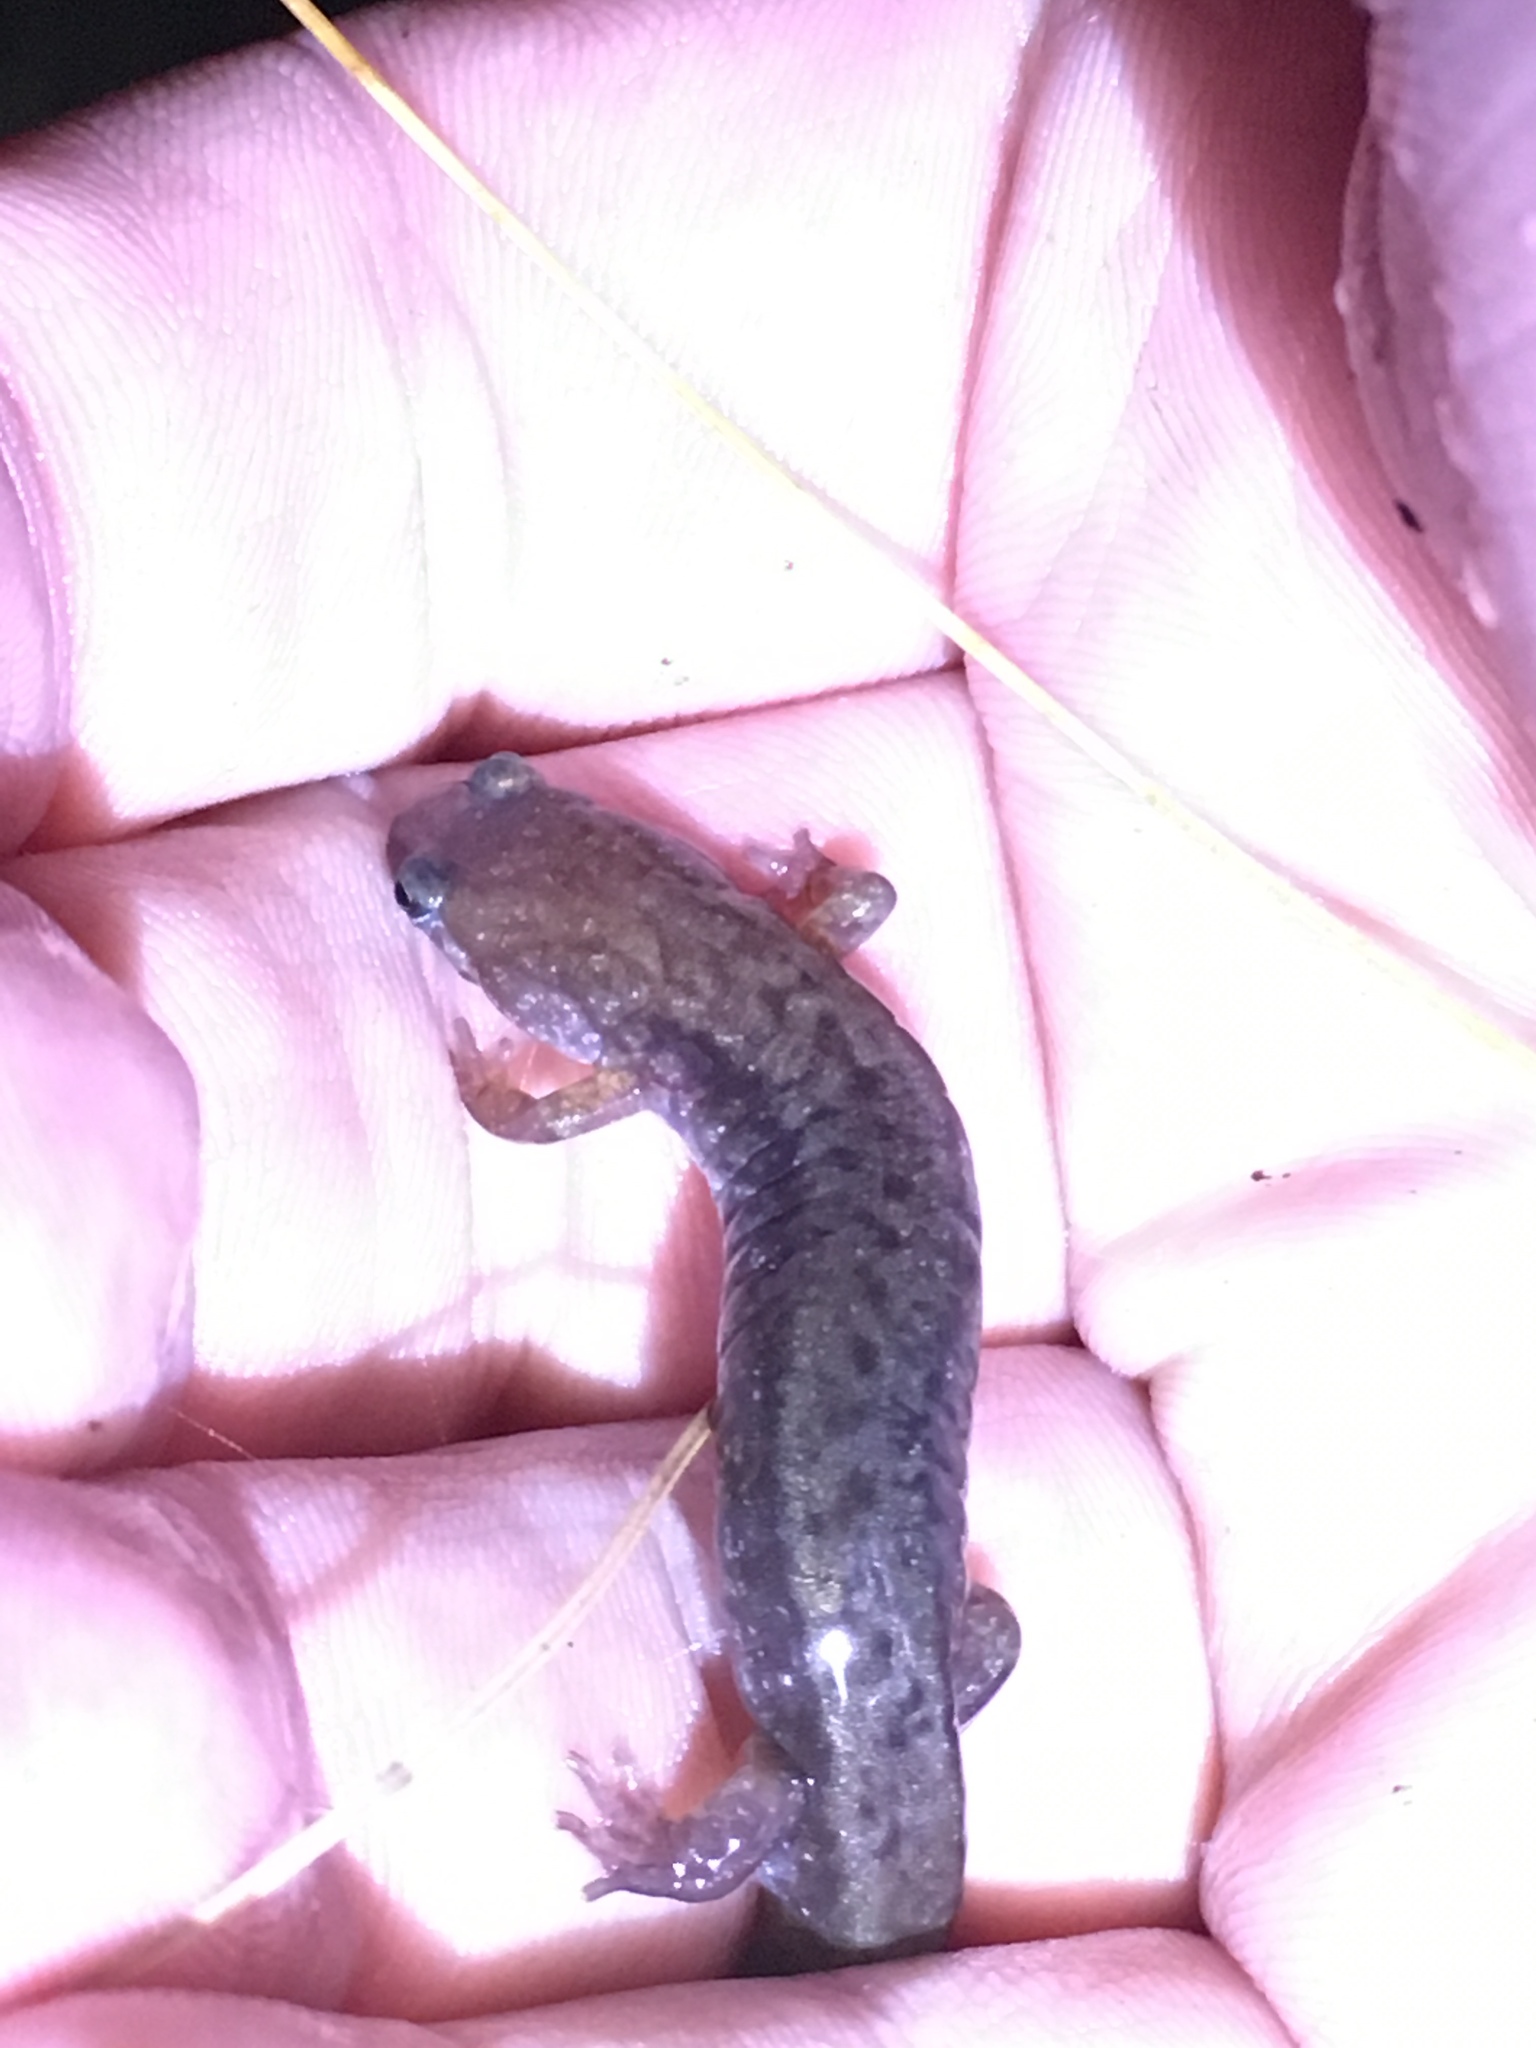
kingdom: Animalia
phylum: Chordata
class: Amphibia
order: Caudata
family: Plethodontidae
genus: Desmognathus
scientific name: Desmognathus ochrophaeus
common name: Allegheny mountain dusky salamander
